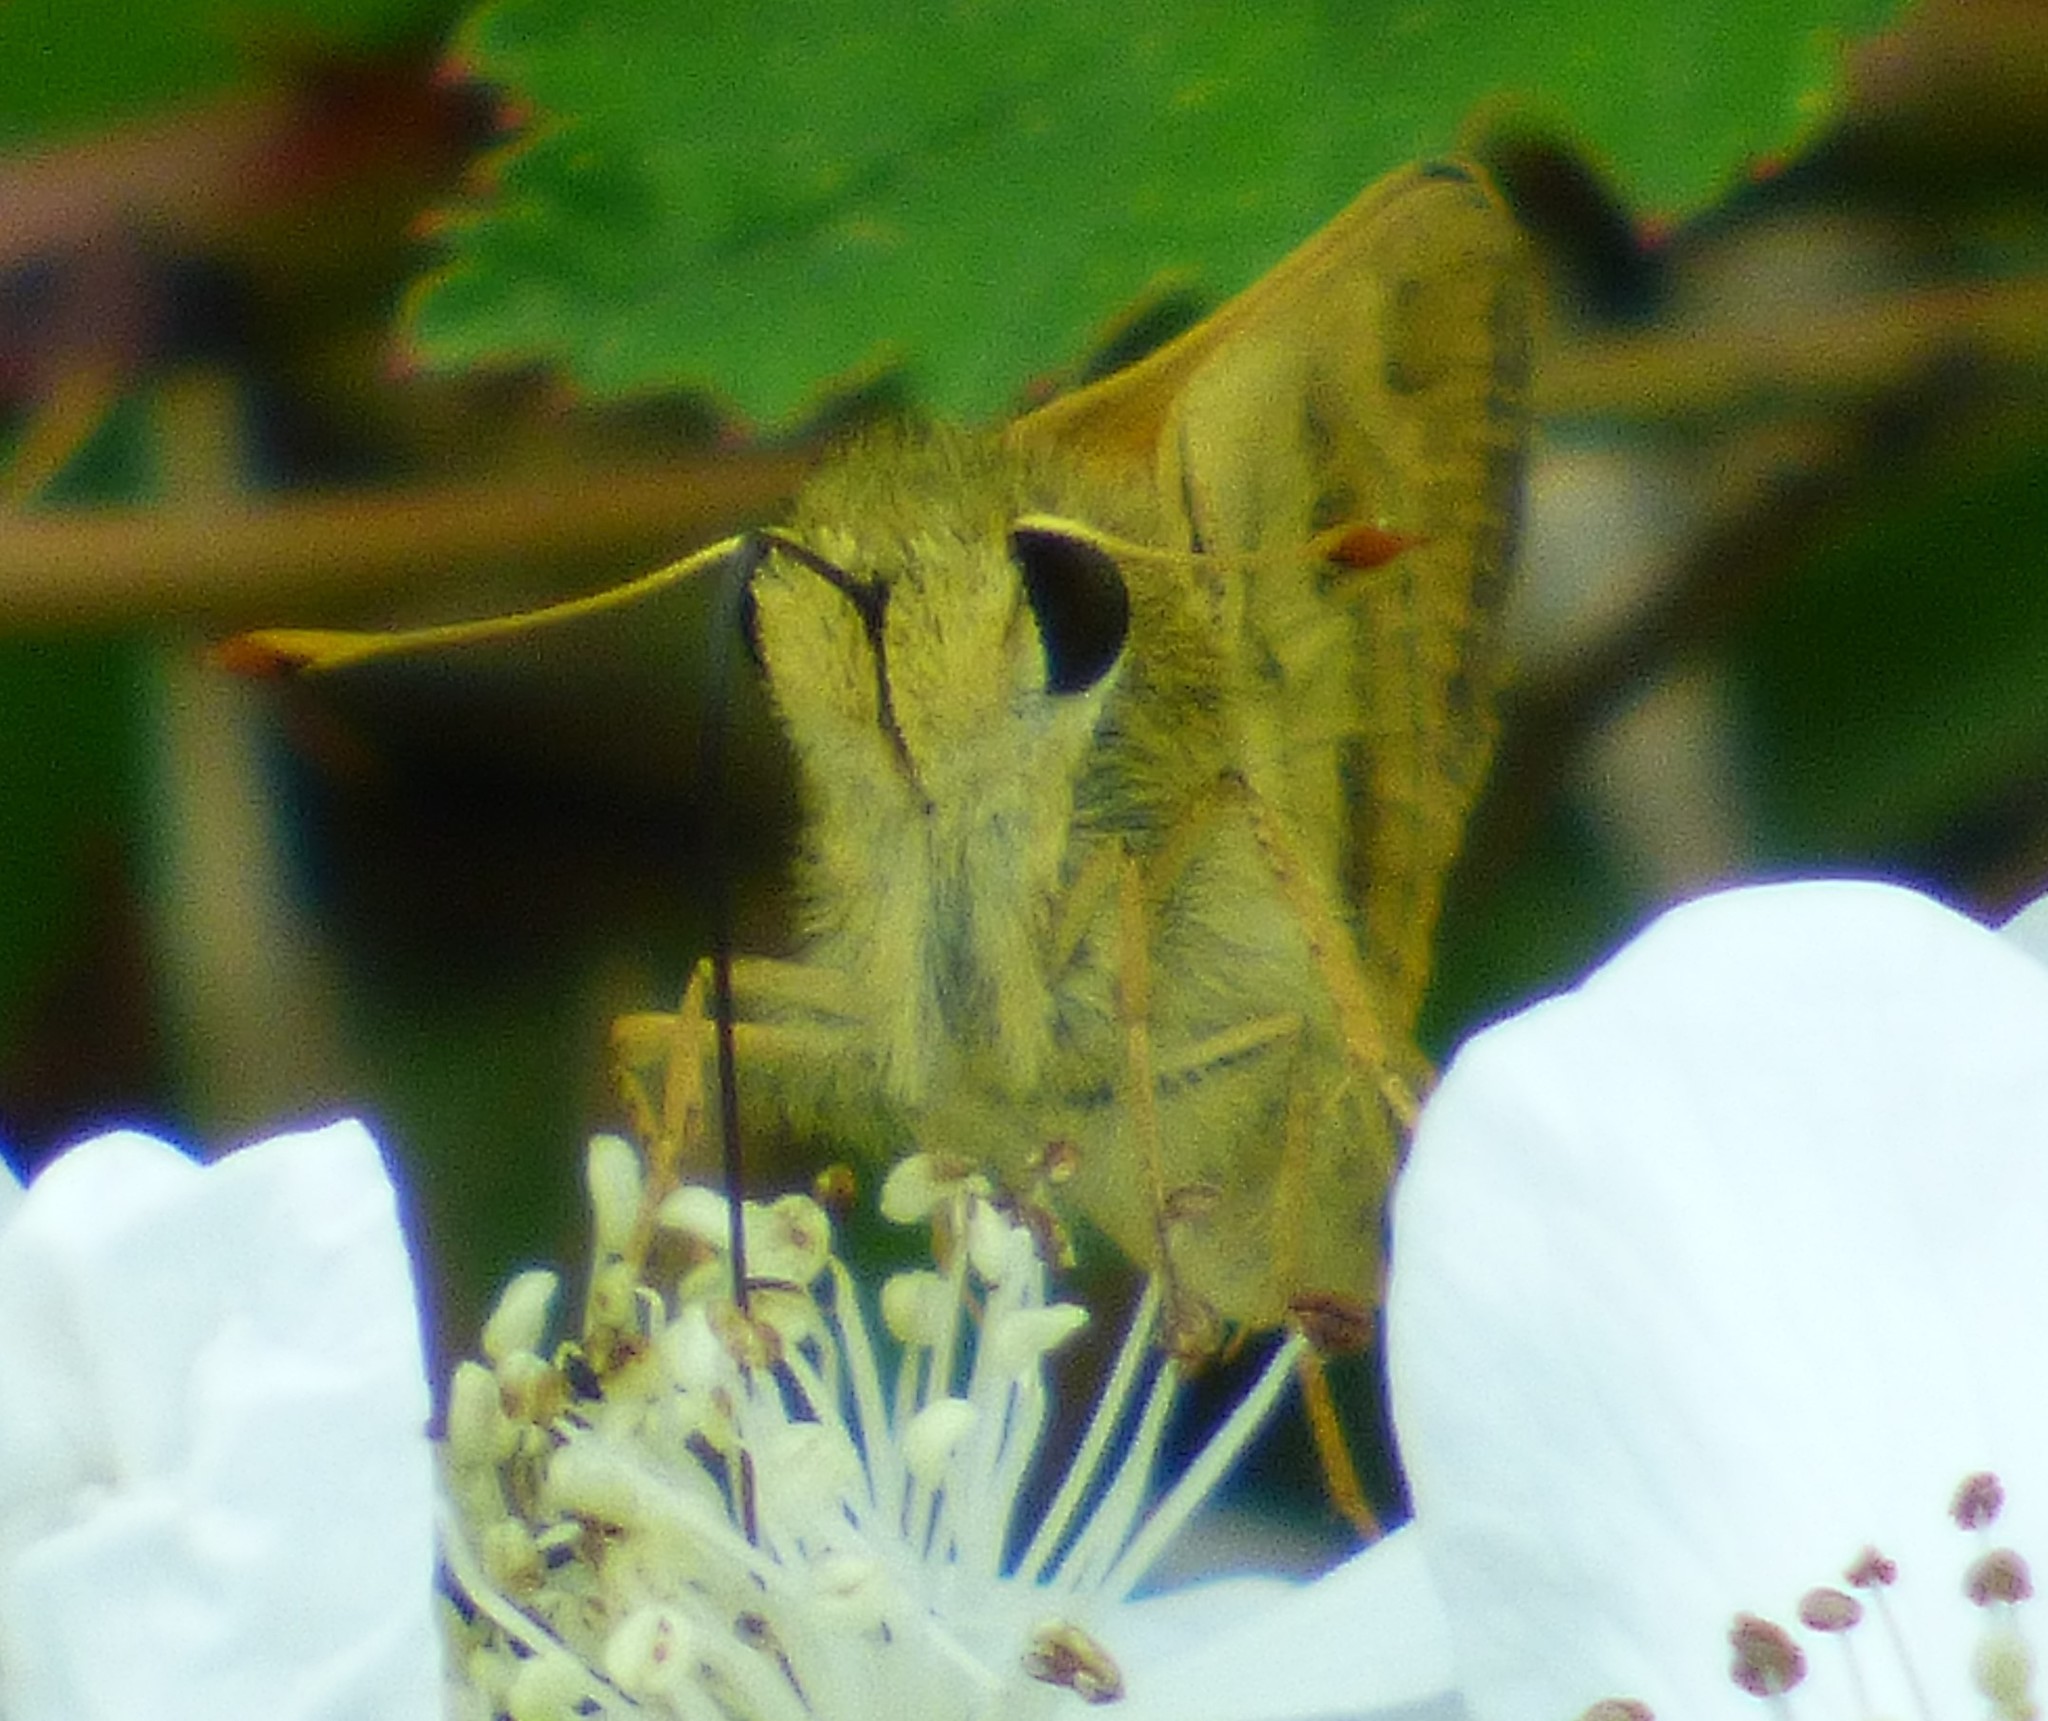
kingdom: Animalia
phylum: Arthropoda
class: Insecta
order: Lepidoptera
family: Hesperiidae
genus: Polites
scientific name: Polites vibex
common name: Whirlabout
